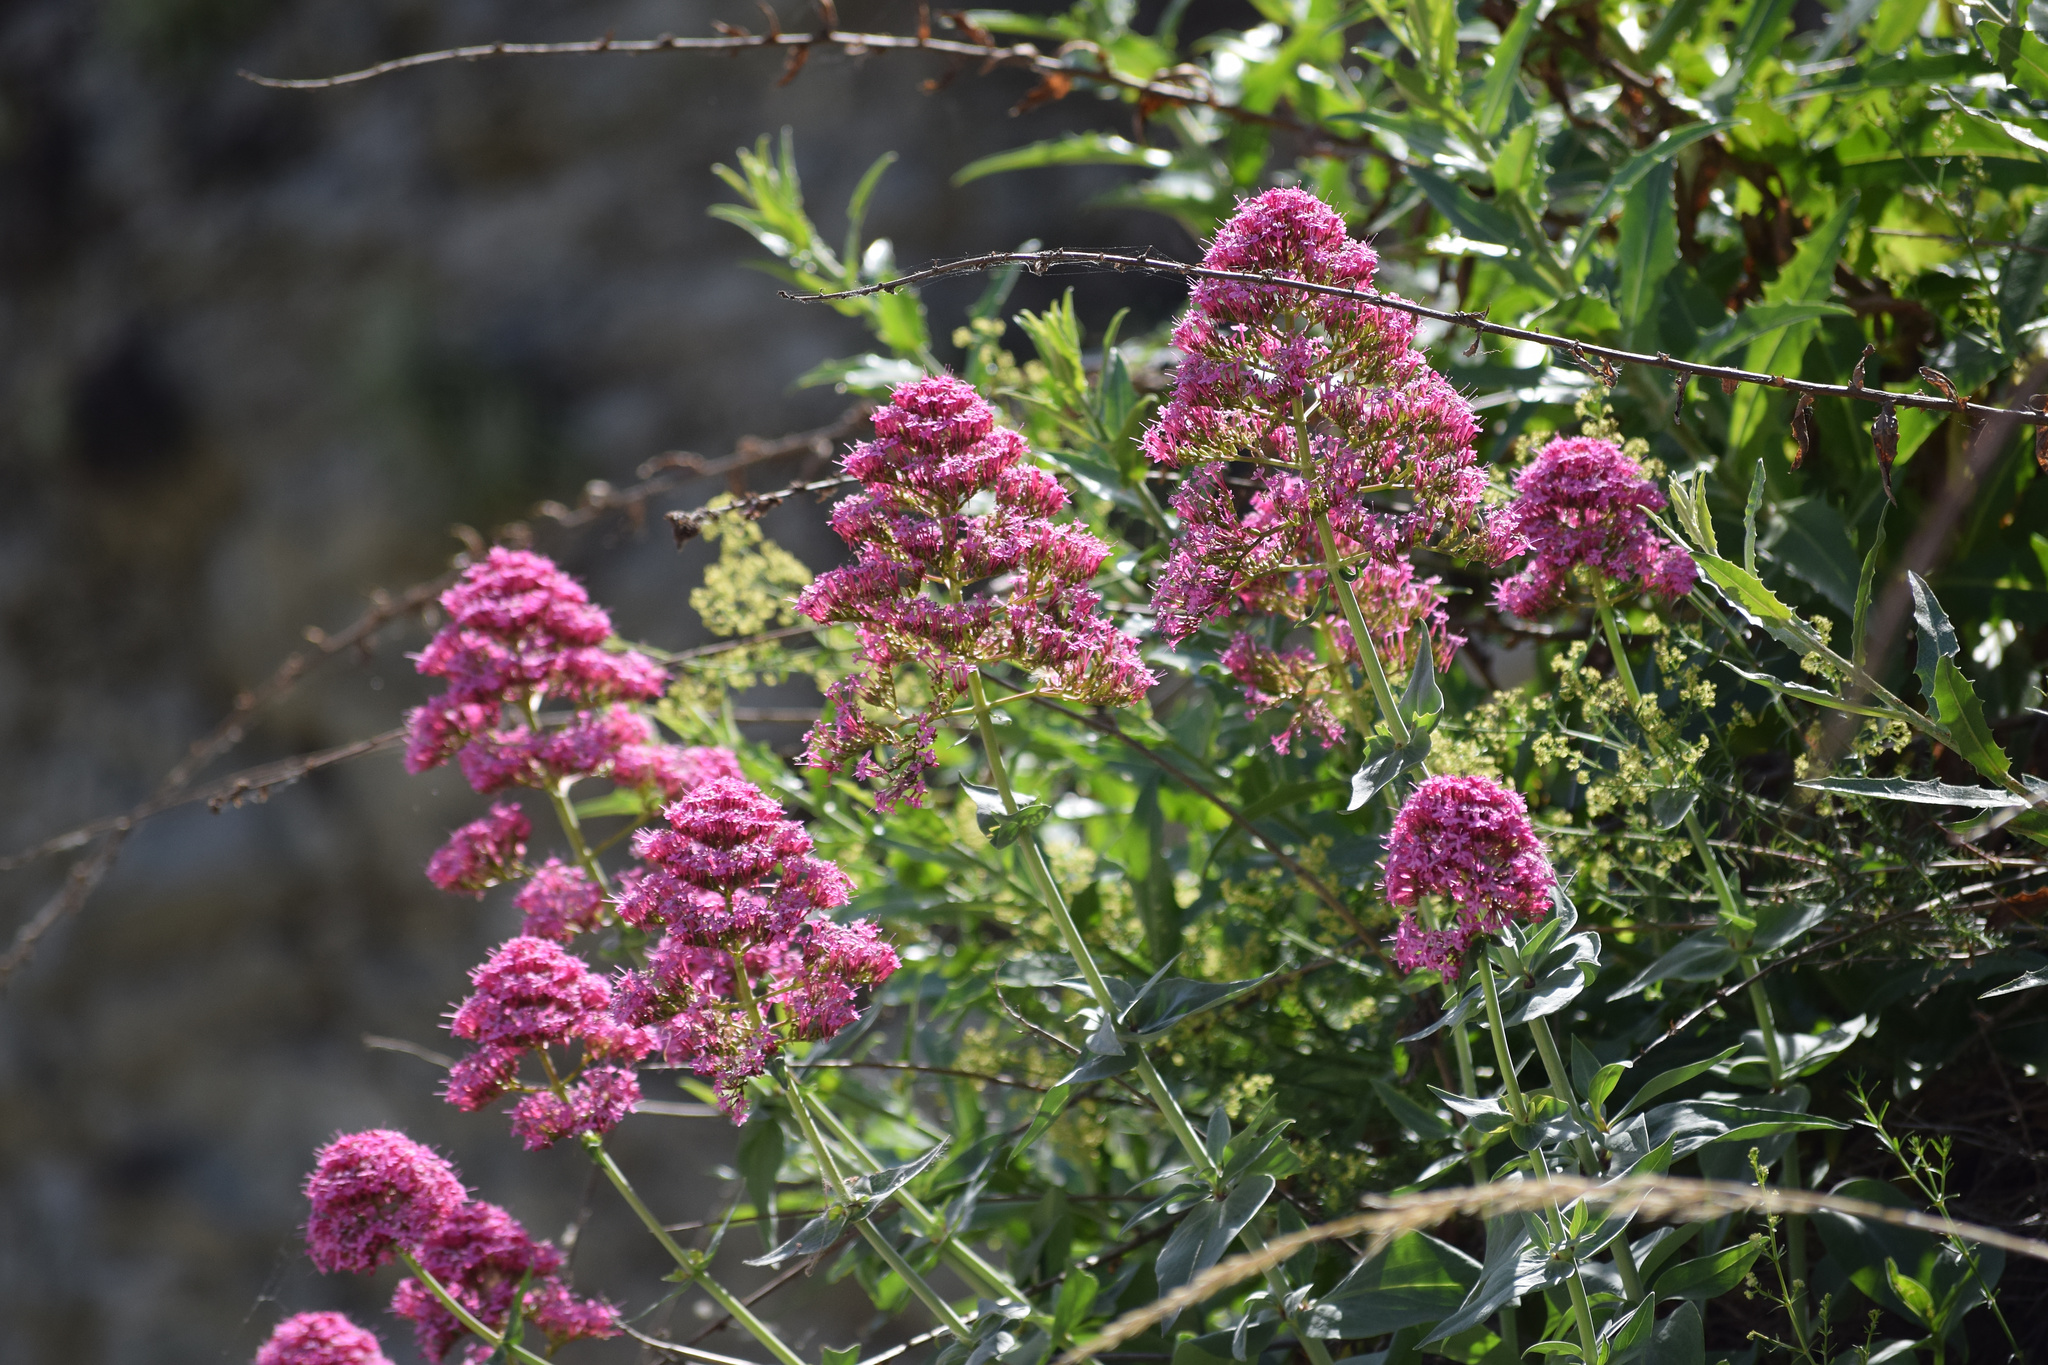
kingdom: Plantae
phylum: Tracheophyta
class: Magnoliopsida
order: Dipsacales
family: Caprifoliaceae
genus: Centranthus
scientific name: Centranthus ruber
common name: Red valerian
